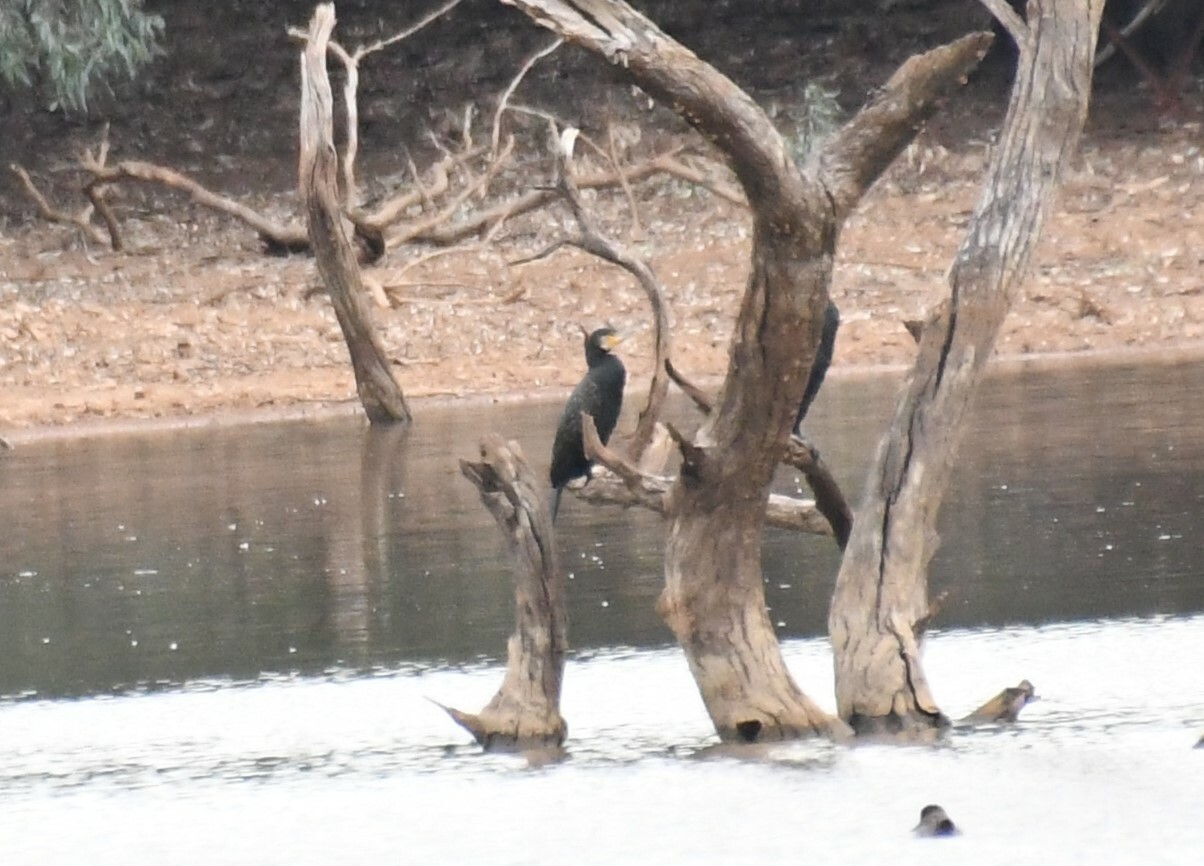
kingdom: Animalia
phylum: Chordata
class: Aves
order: Suliformes
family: Phalacrocoracidae
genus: Phalacrocorax
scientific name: Phalacrocorax carbo
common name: Great cormorant
